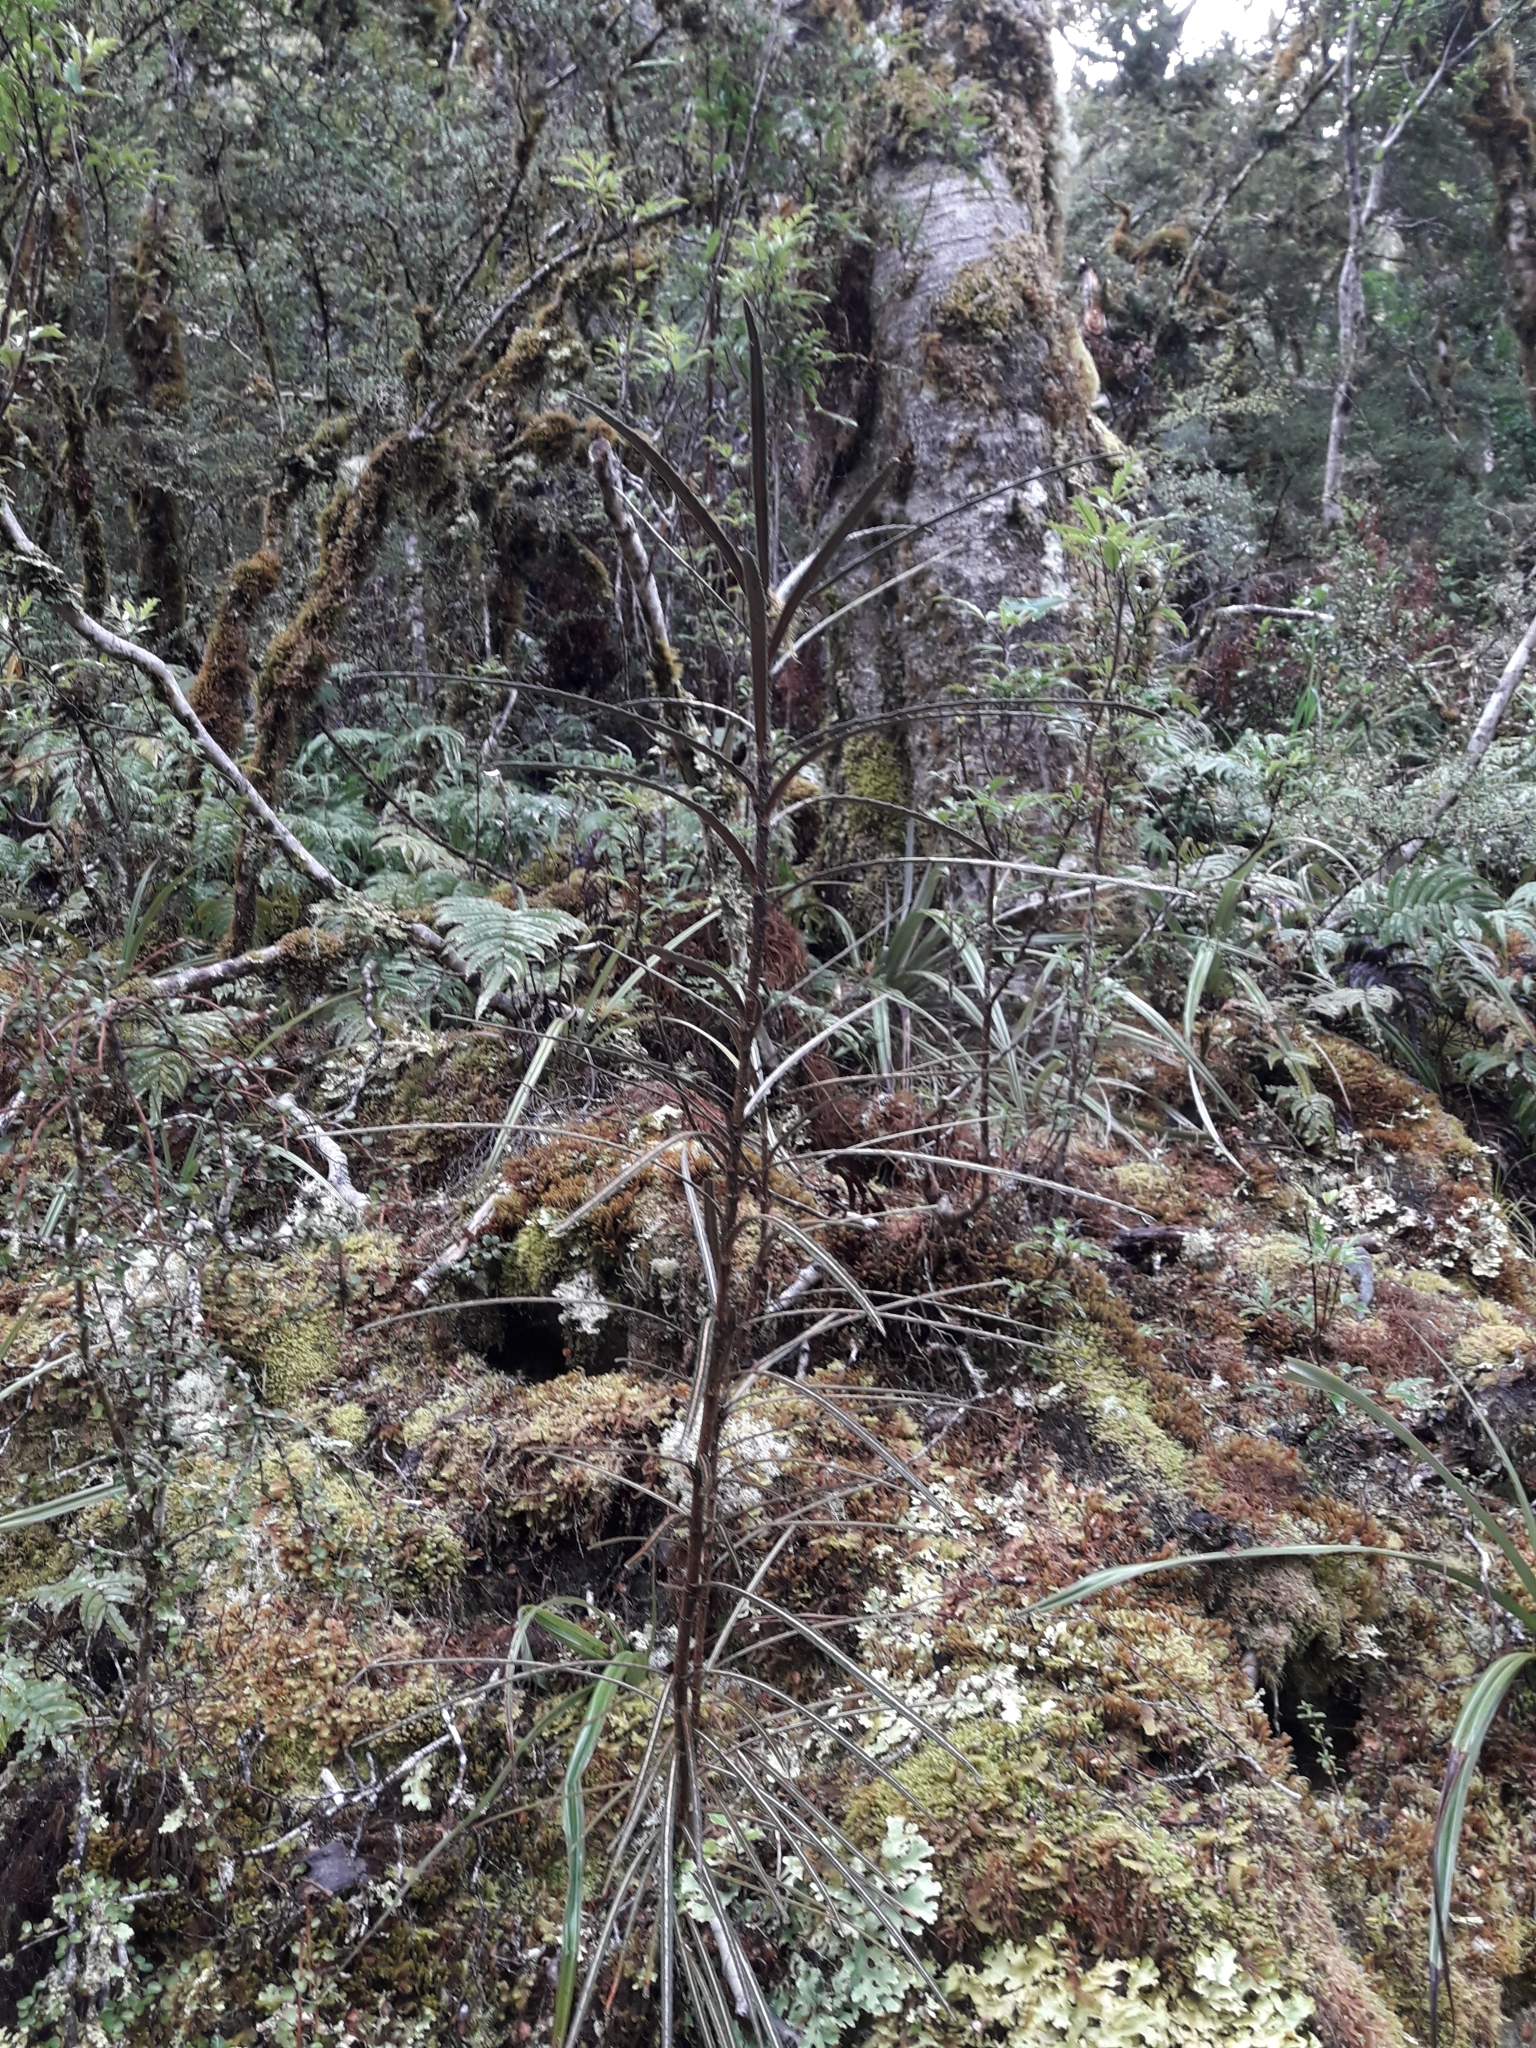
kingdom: Plantae
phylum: Tracheophyta
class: Magnoliopsida
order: Apiales
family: Araliaceae
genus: Pseudopanax
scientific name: Pseudopanax linearis
